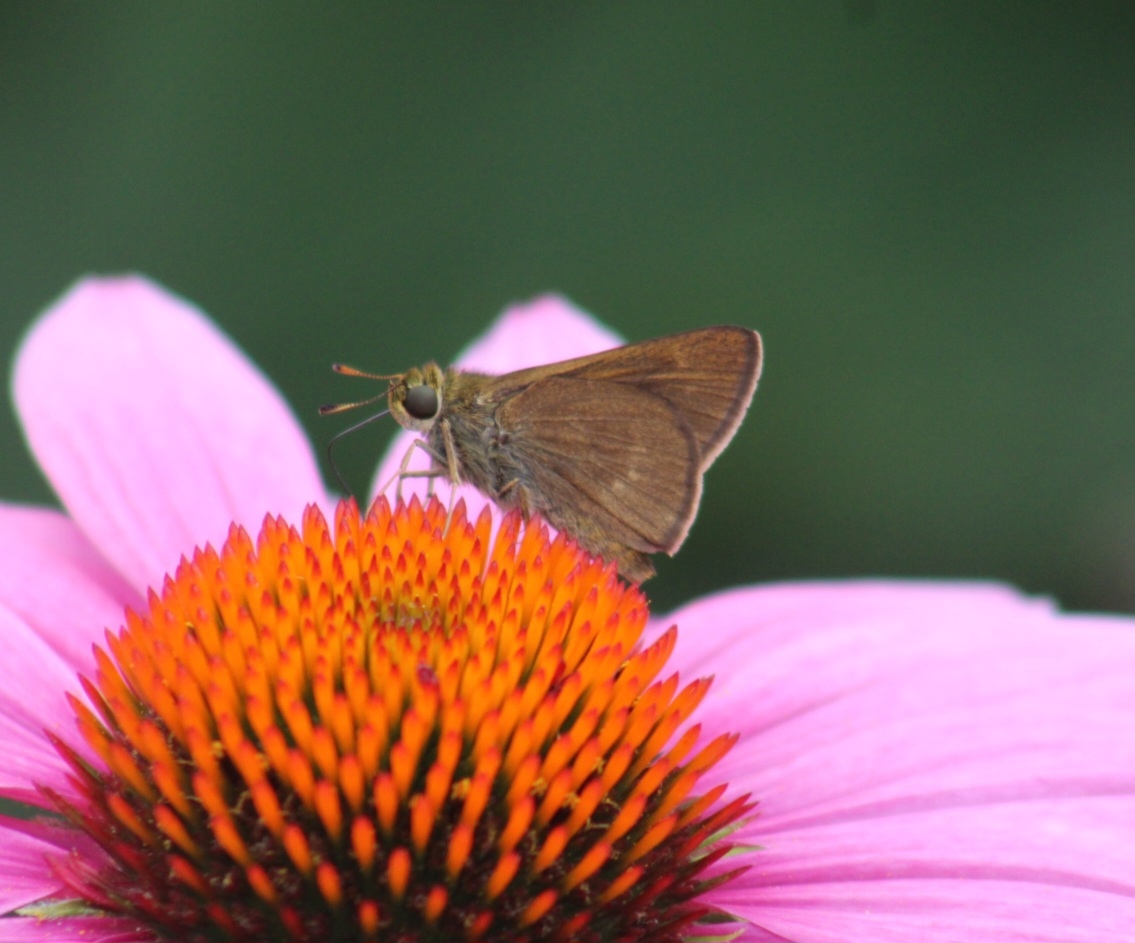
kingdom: Animalia
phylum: Arthropoda
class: Insecta
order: Lepidoptera
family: Hesperiidae
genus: Euphyes
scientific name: Euphyes vestris
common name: Dun skipper
